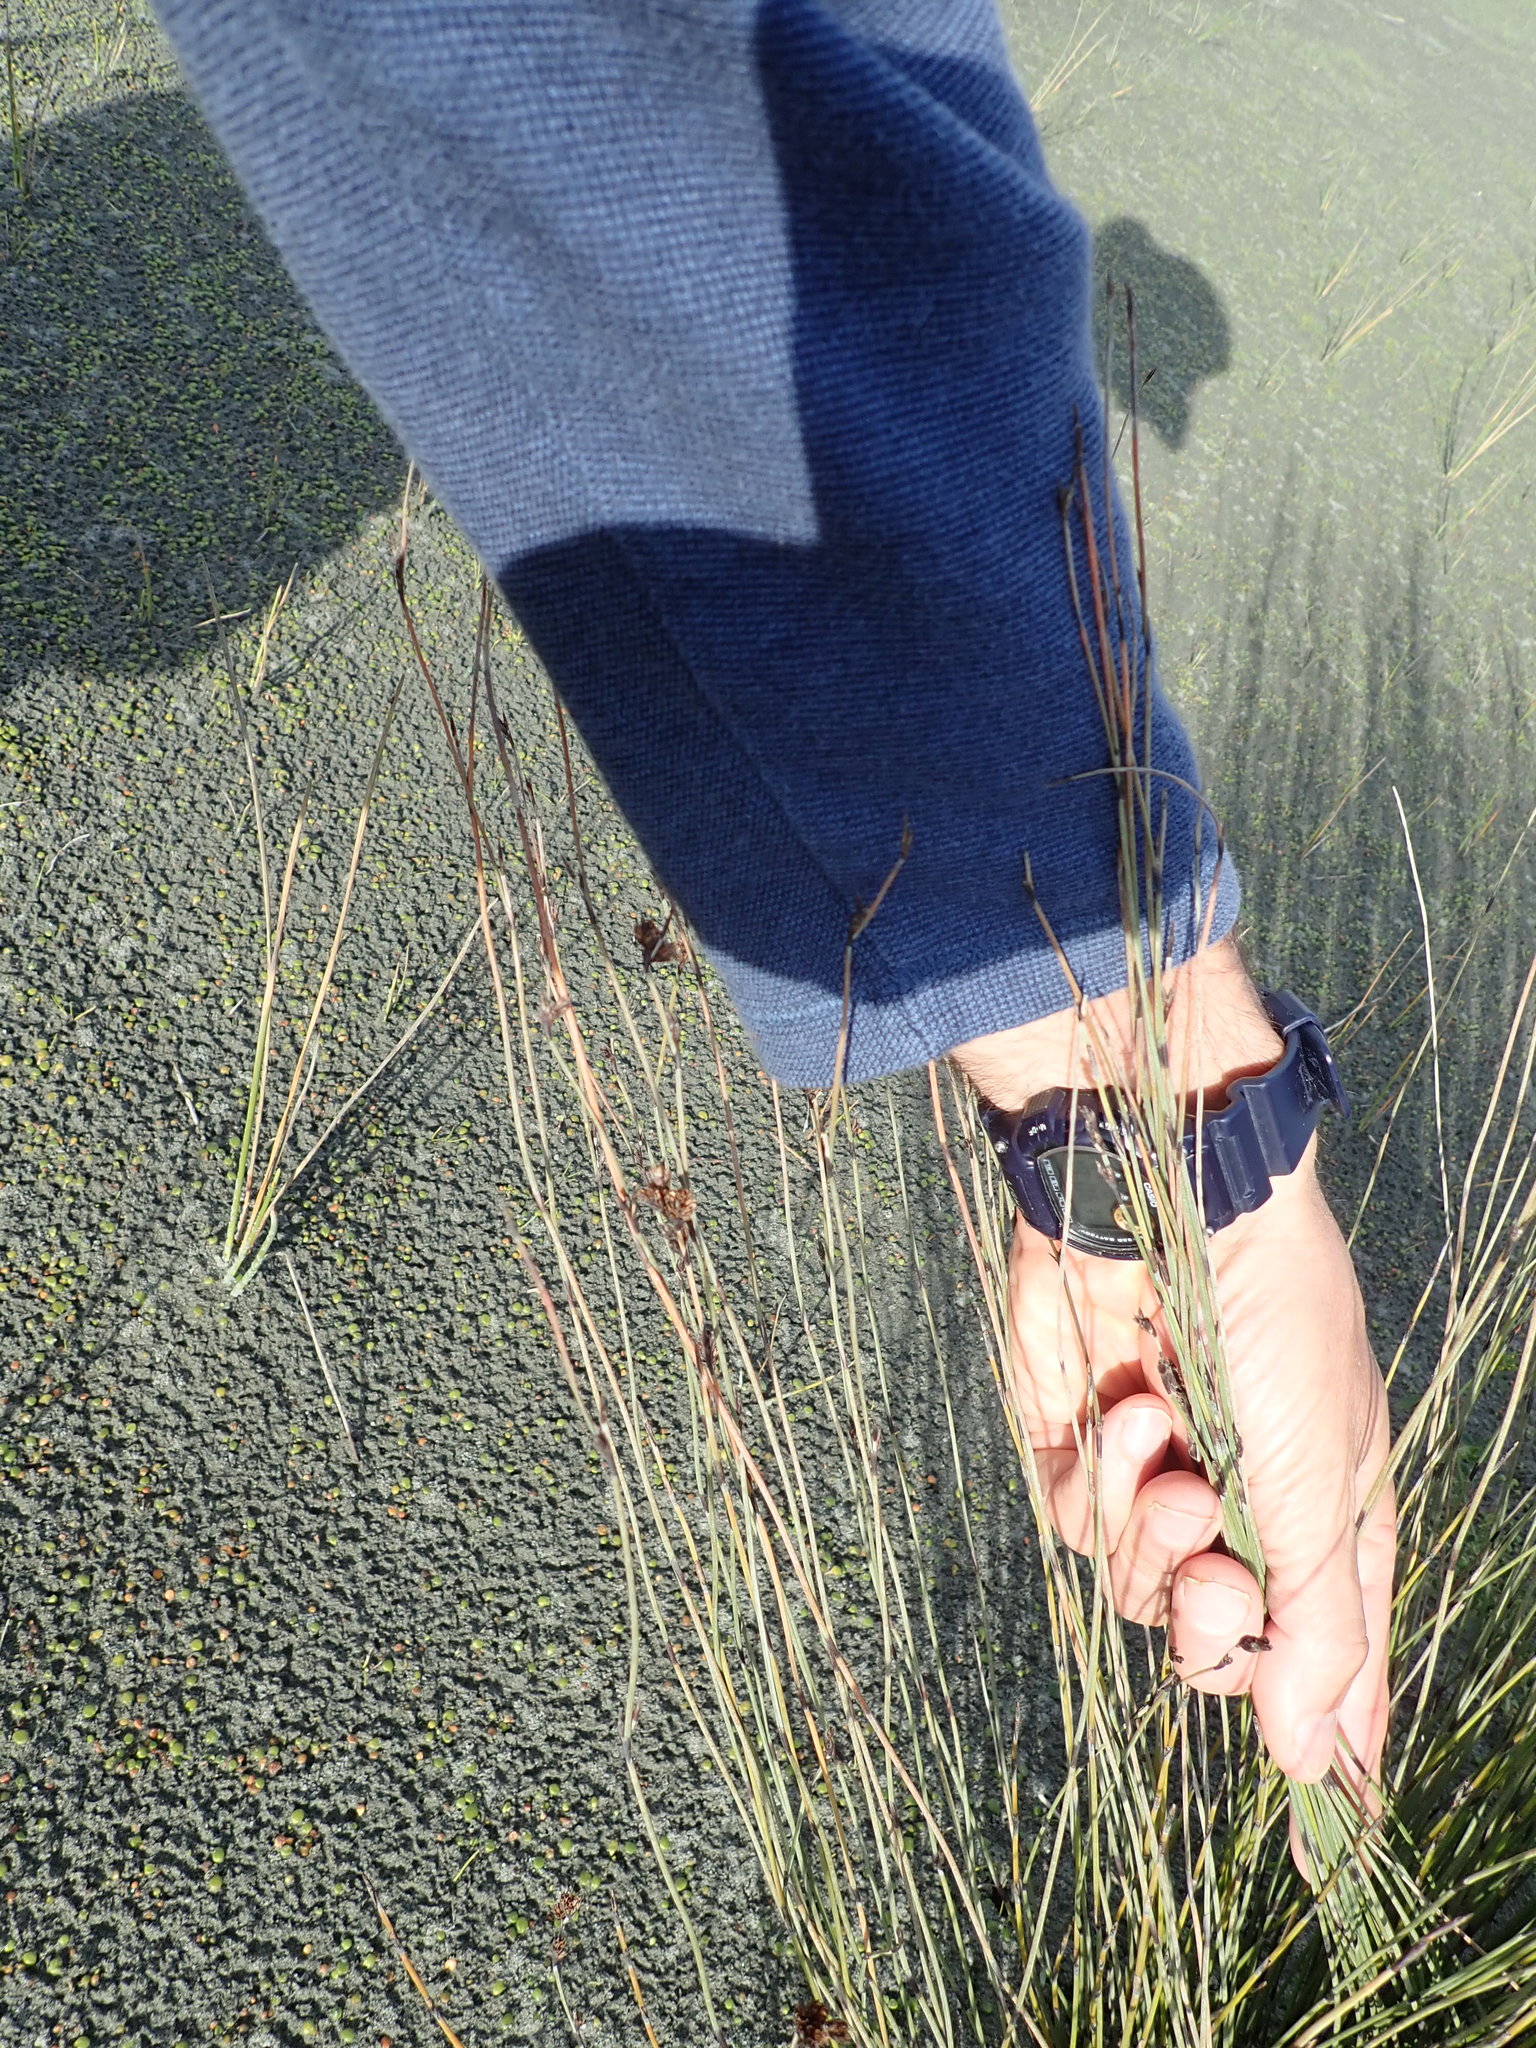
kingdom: Plantae
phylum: Tracheophyta
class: Liliopsida
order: Poales
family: Restionaceae
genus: Apodasmia
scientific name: Apodasmia similis
